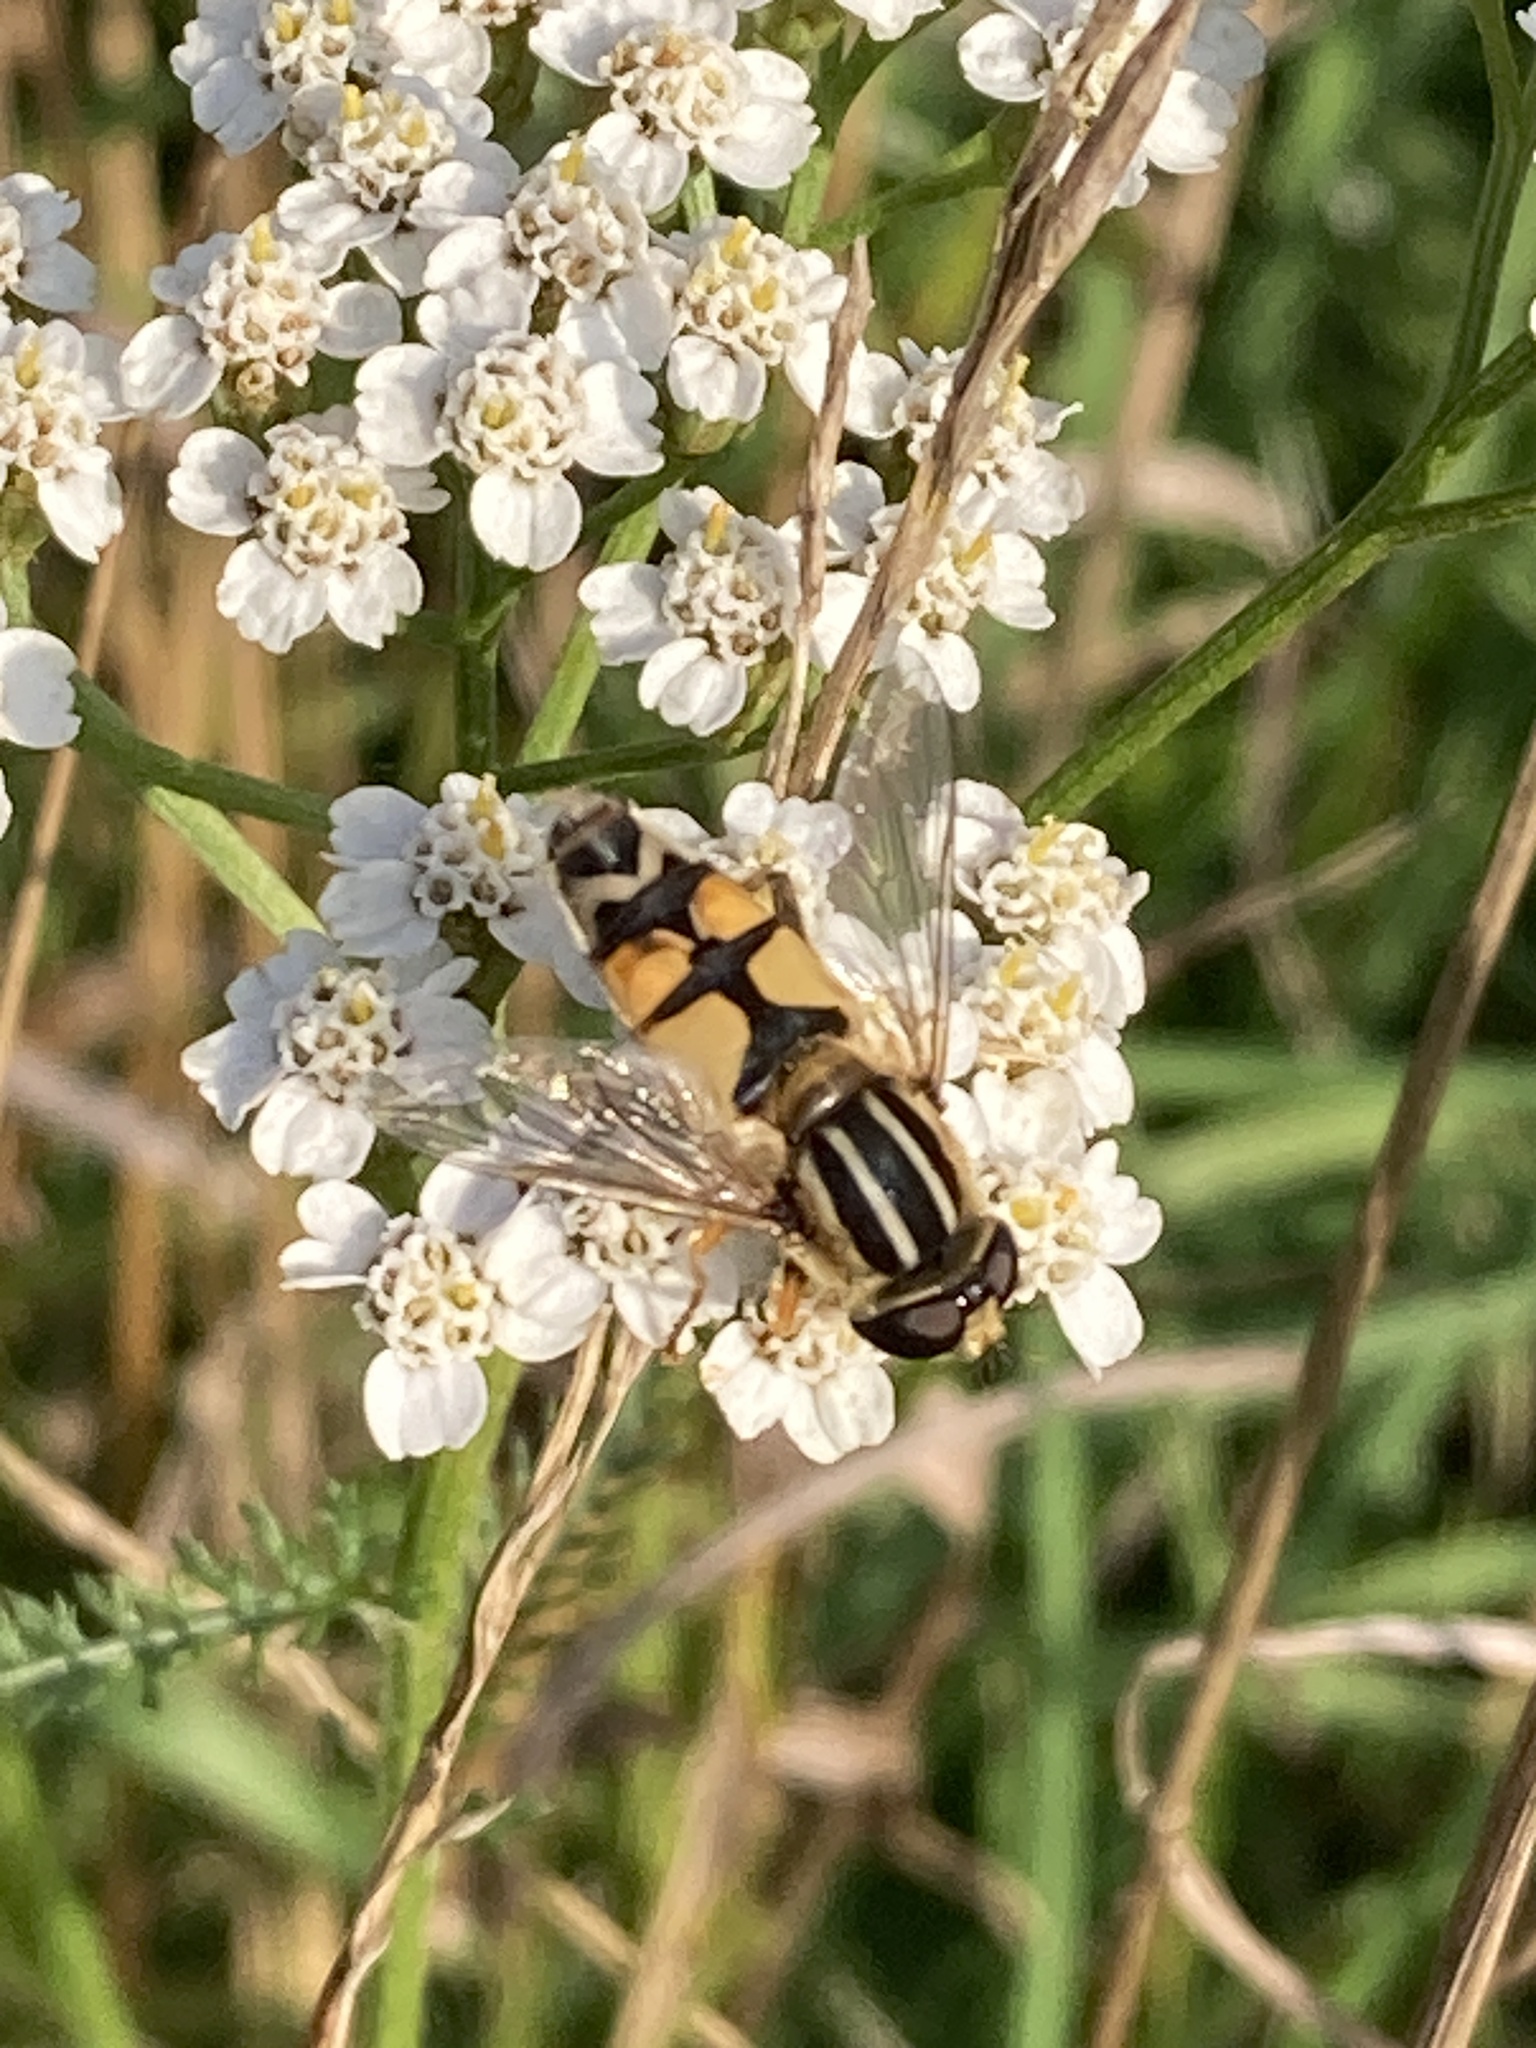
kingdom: Animalia
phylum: Arthropoda
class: Insecta
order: Diptera
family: Syrphidae
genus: Helophilus
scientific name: Helophilus trivittatus
